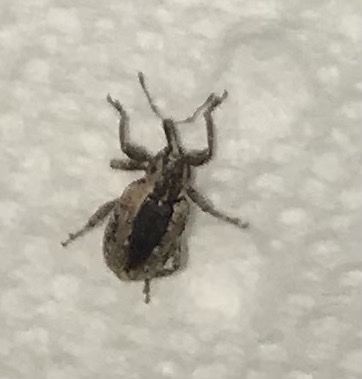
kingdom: Animalia
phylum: Arthropoda
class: Insecta
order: Coleoptera
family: Curculionidae
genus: Hypera
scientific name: Hypera postica
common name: Weevil
